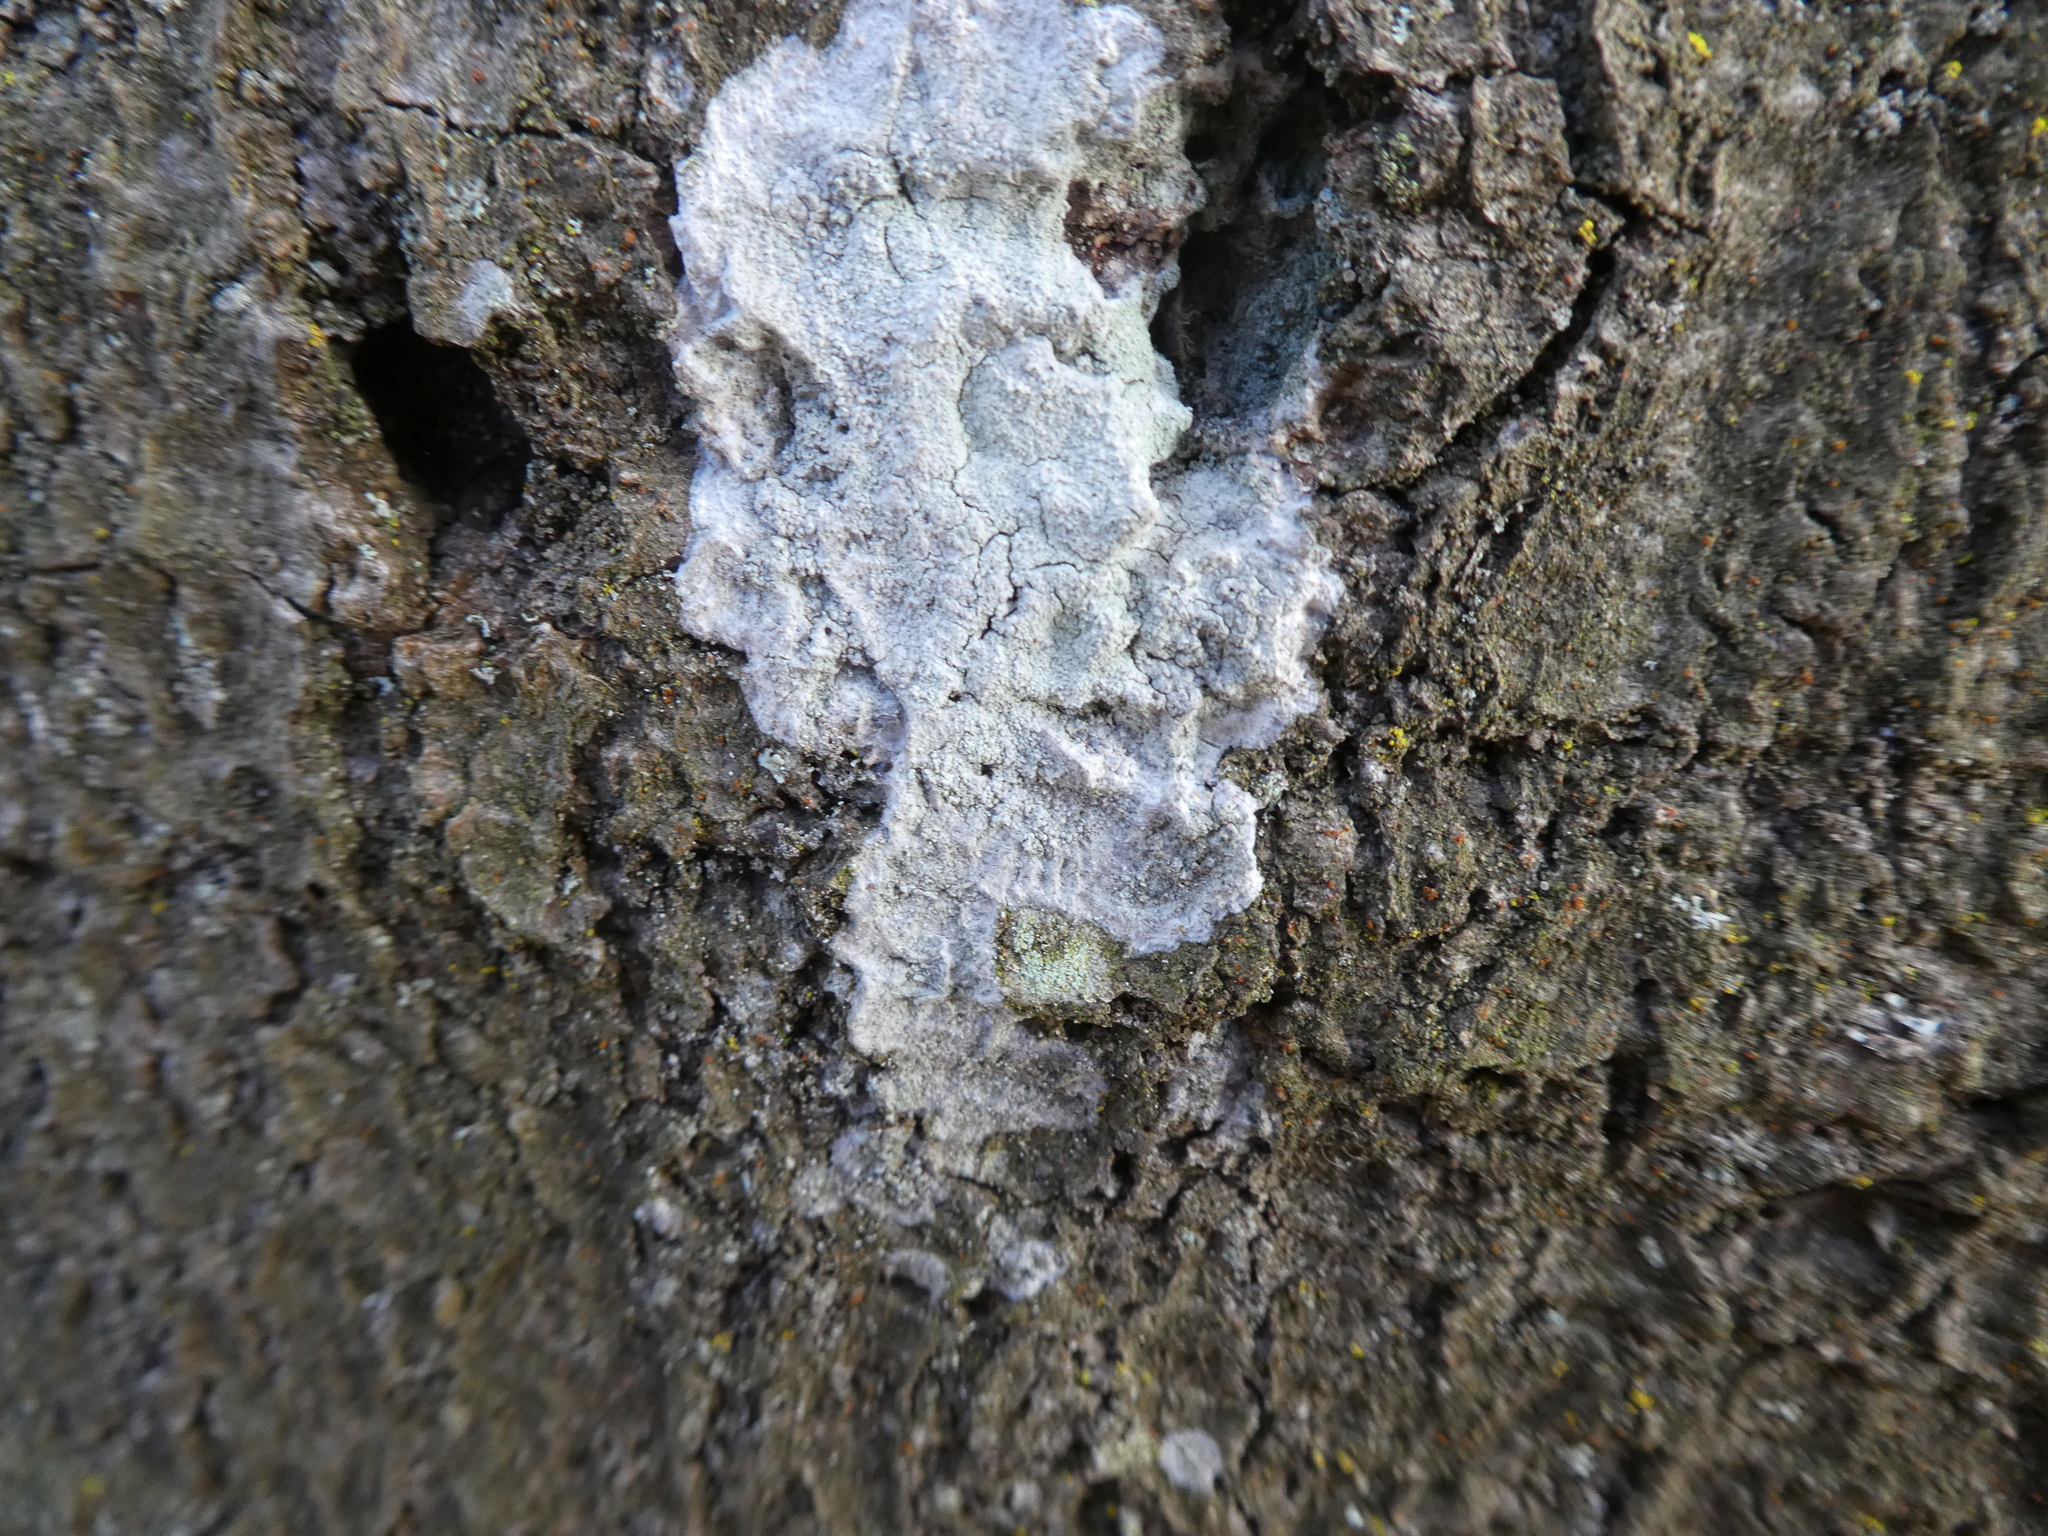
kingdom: Fungi
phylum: Ascomycota
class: Lecanoromycetes
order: Ostropales
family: Phlyctidaceae
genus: Phlyctis
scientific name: Phlyctis argena
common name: Whitewash lichen
